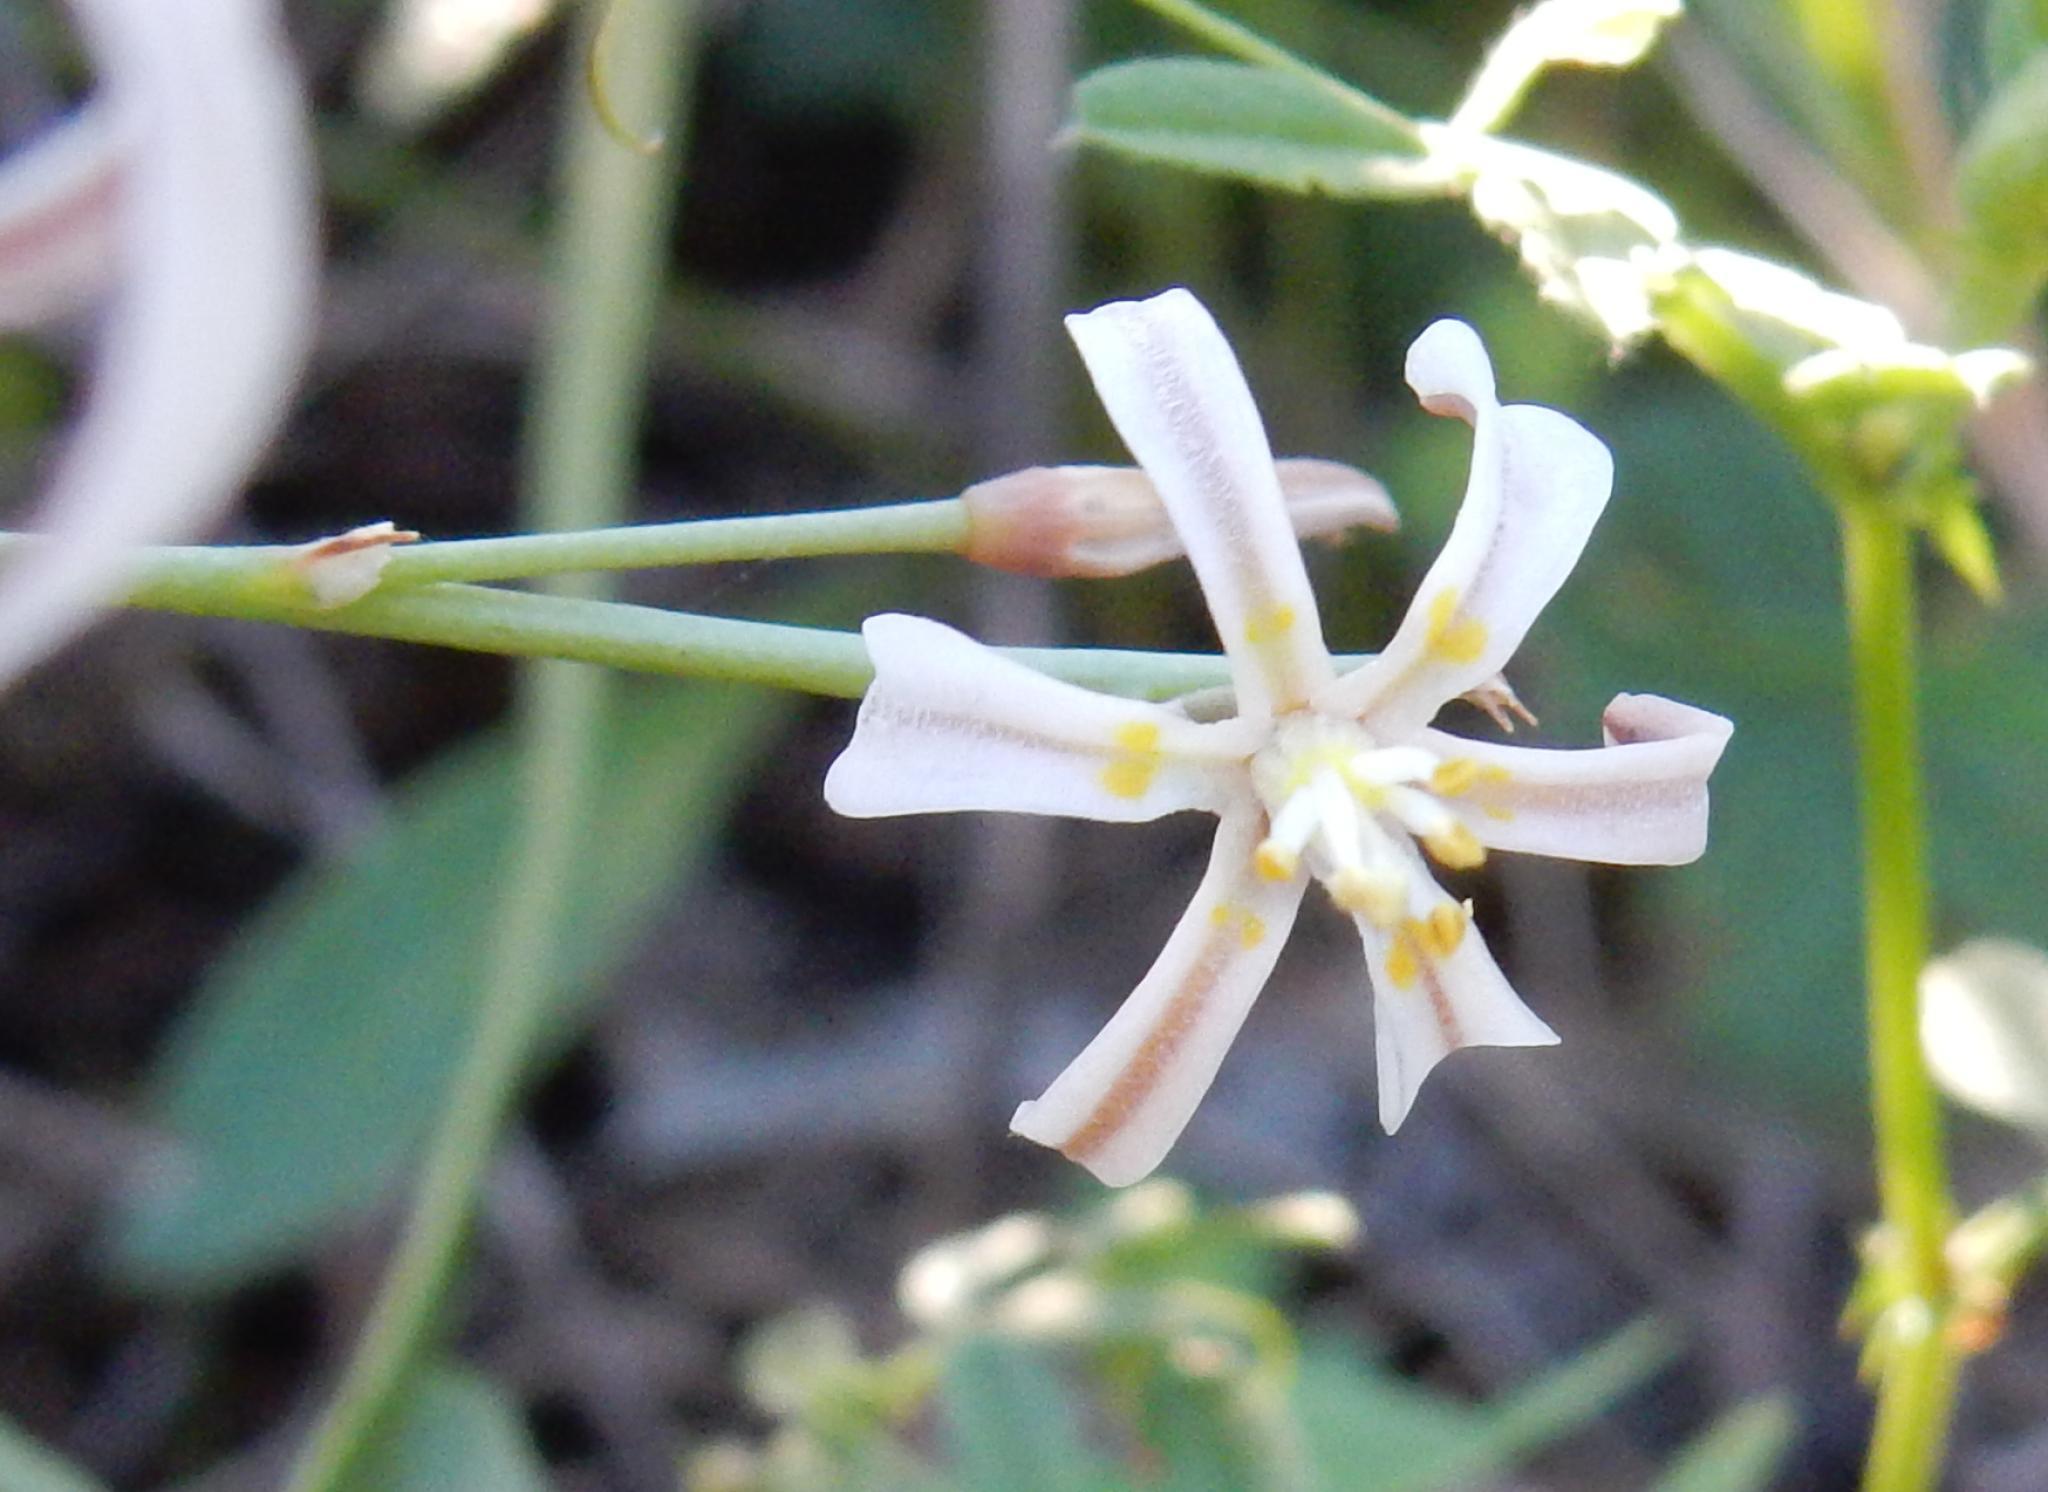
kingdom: Plantae
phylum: Tracheophyta
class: Liliopsida
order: Asparagales
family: Asphodelaceae
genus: Trachyandra
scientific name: Trachyandra divaricata
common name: Dune onionweed
